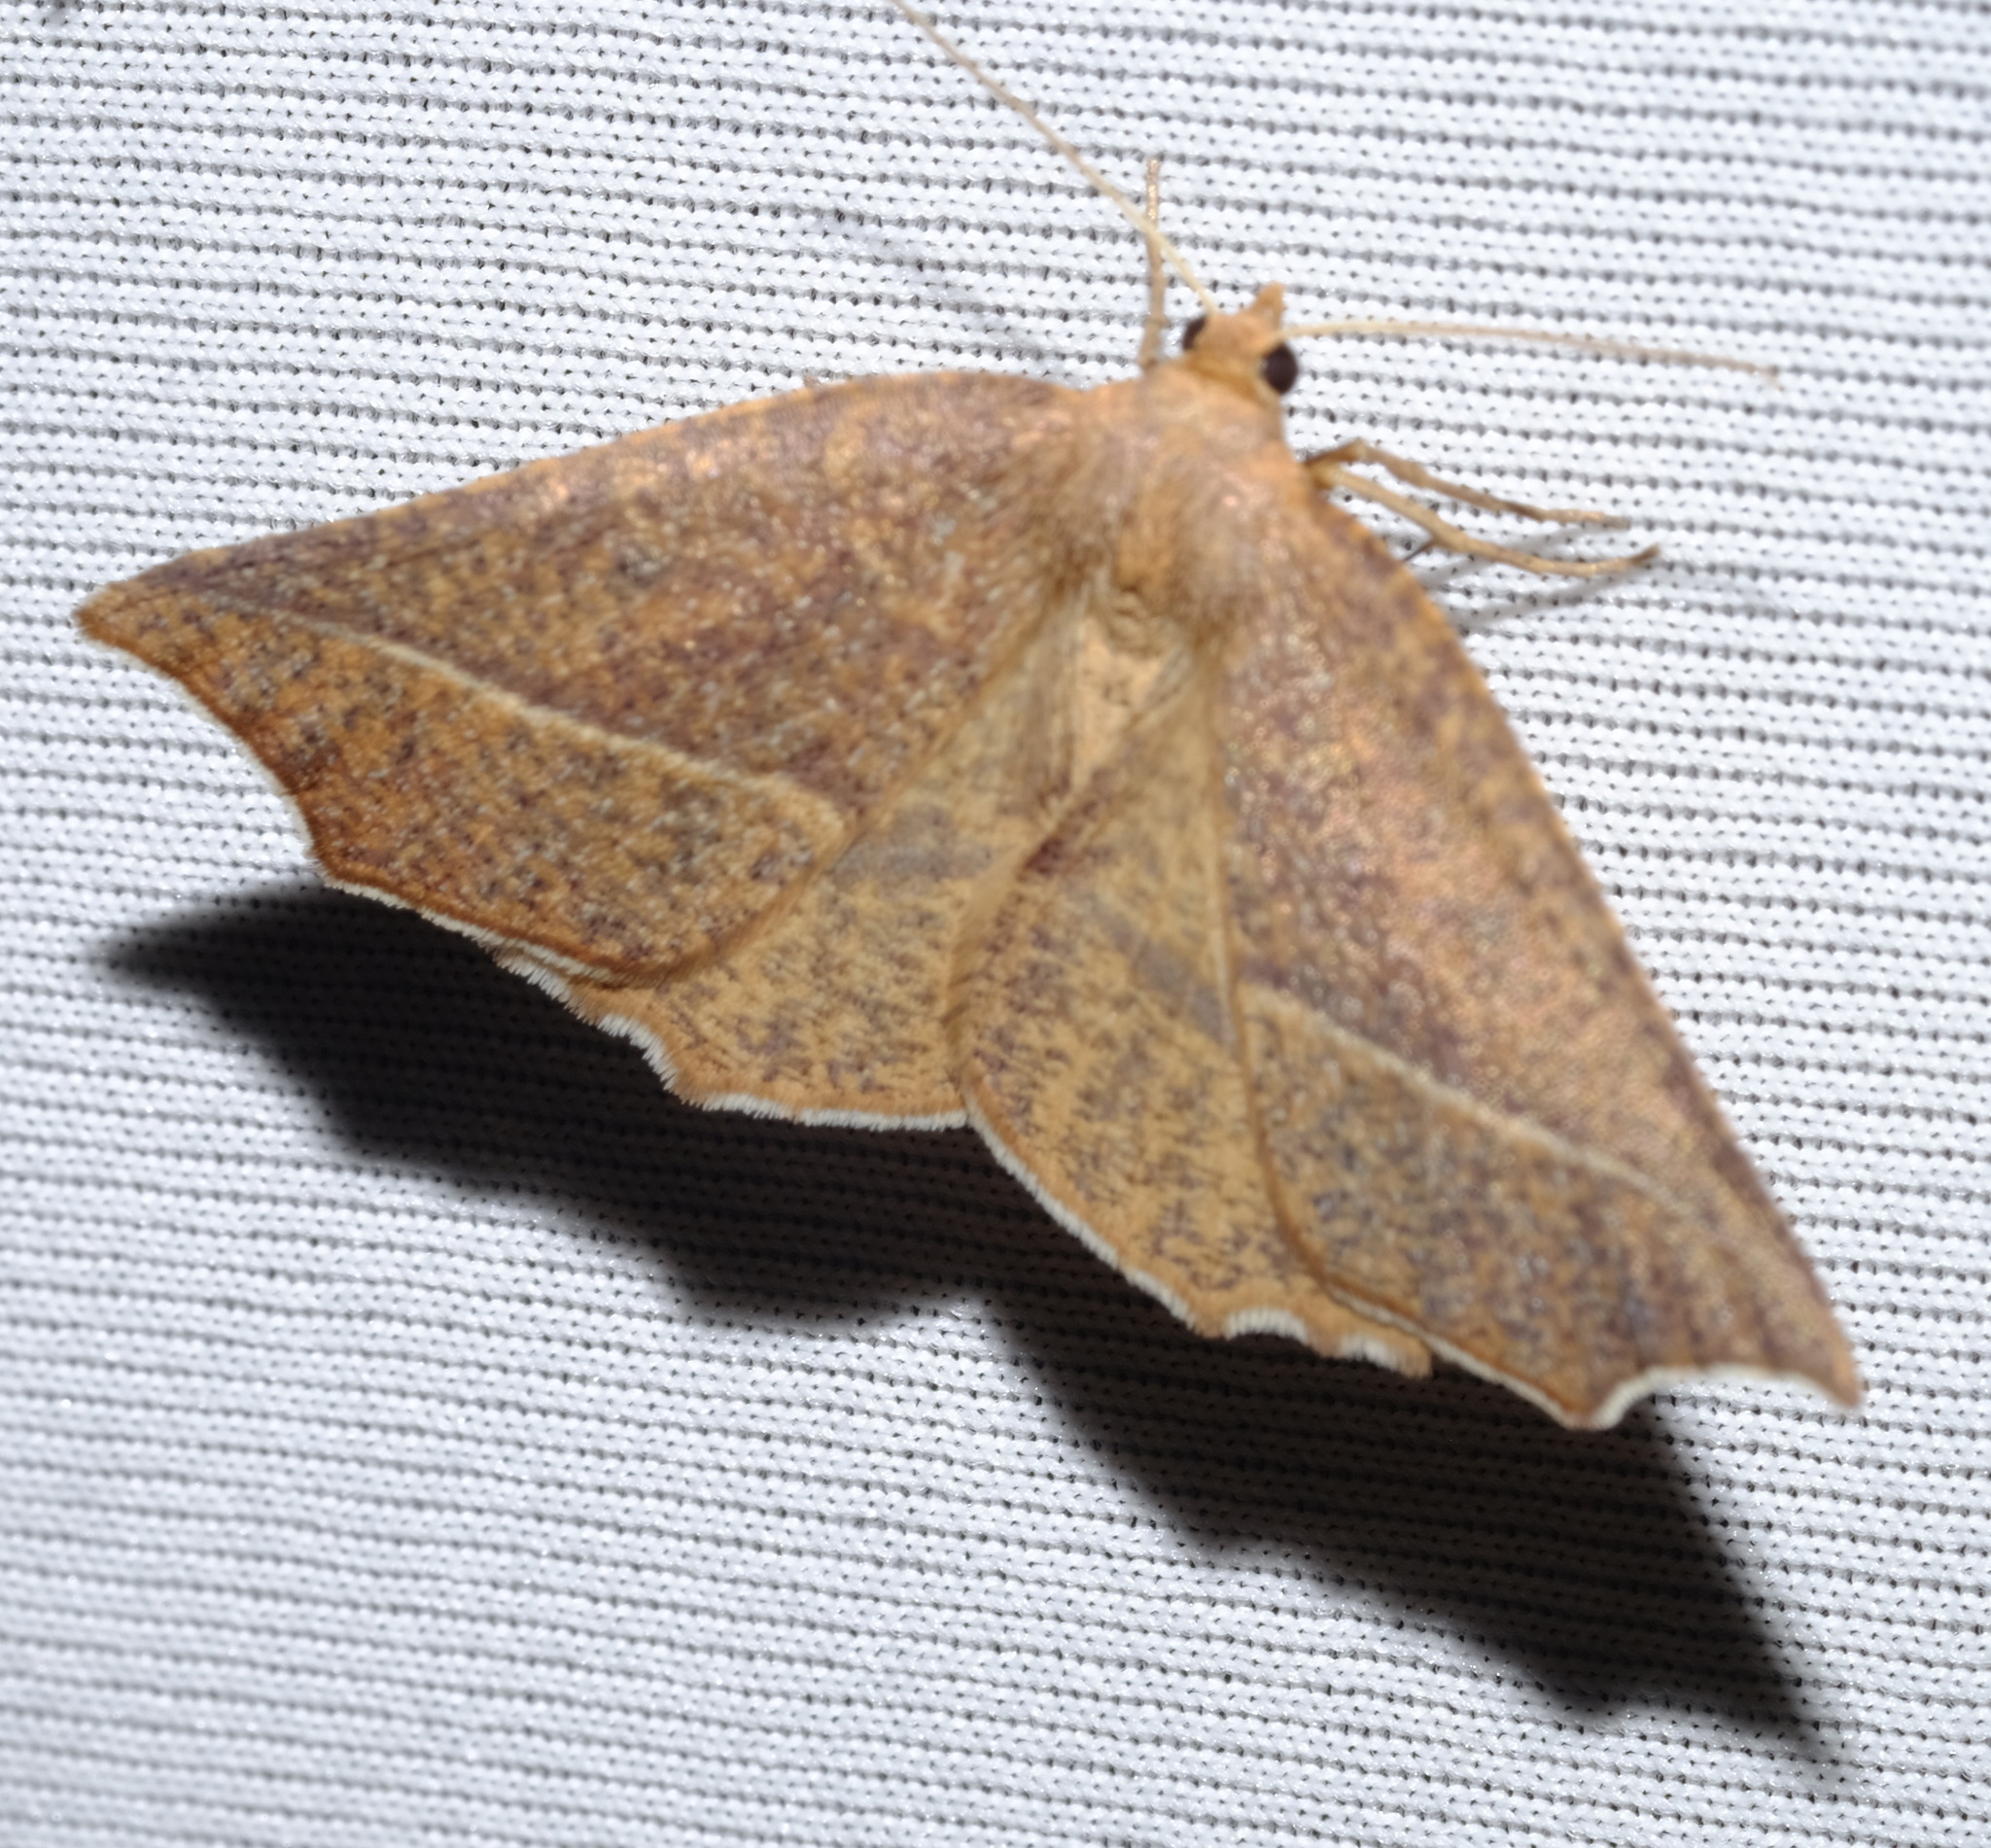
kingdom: Animalia
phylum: Arthropoda
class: Insecta
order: Lepidoptera
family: Geometridae
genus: Microsema
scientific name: Microsema
